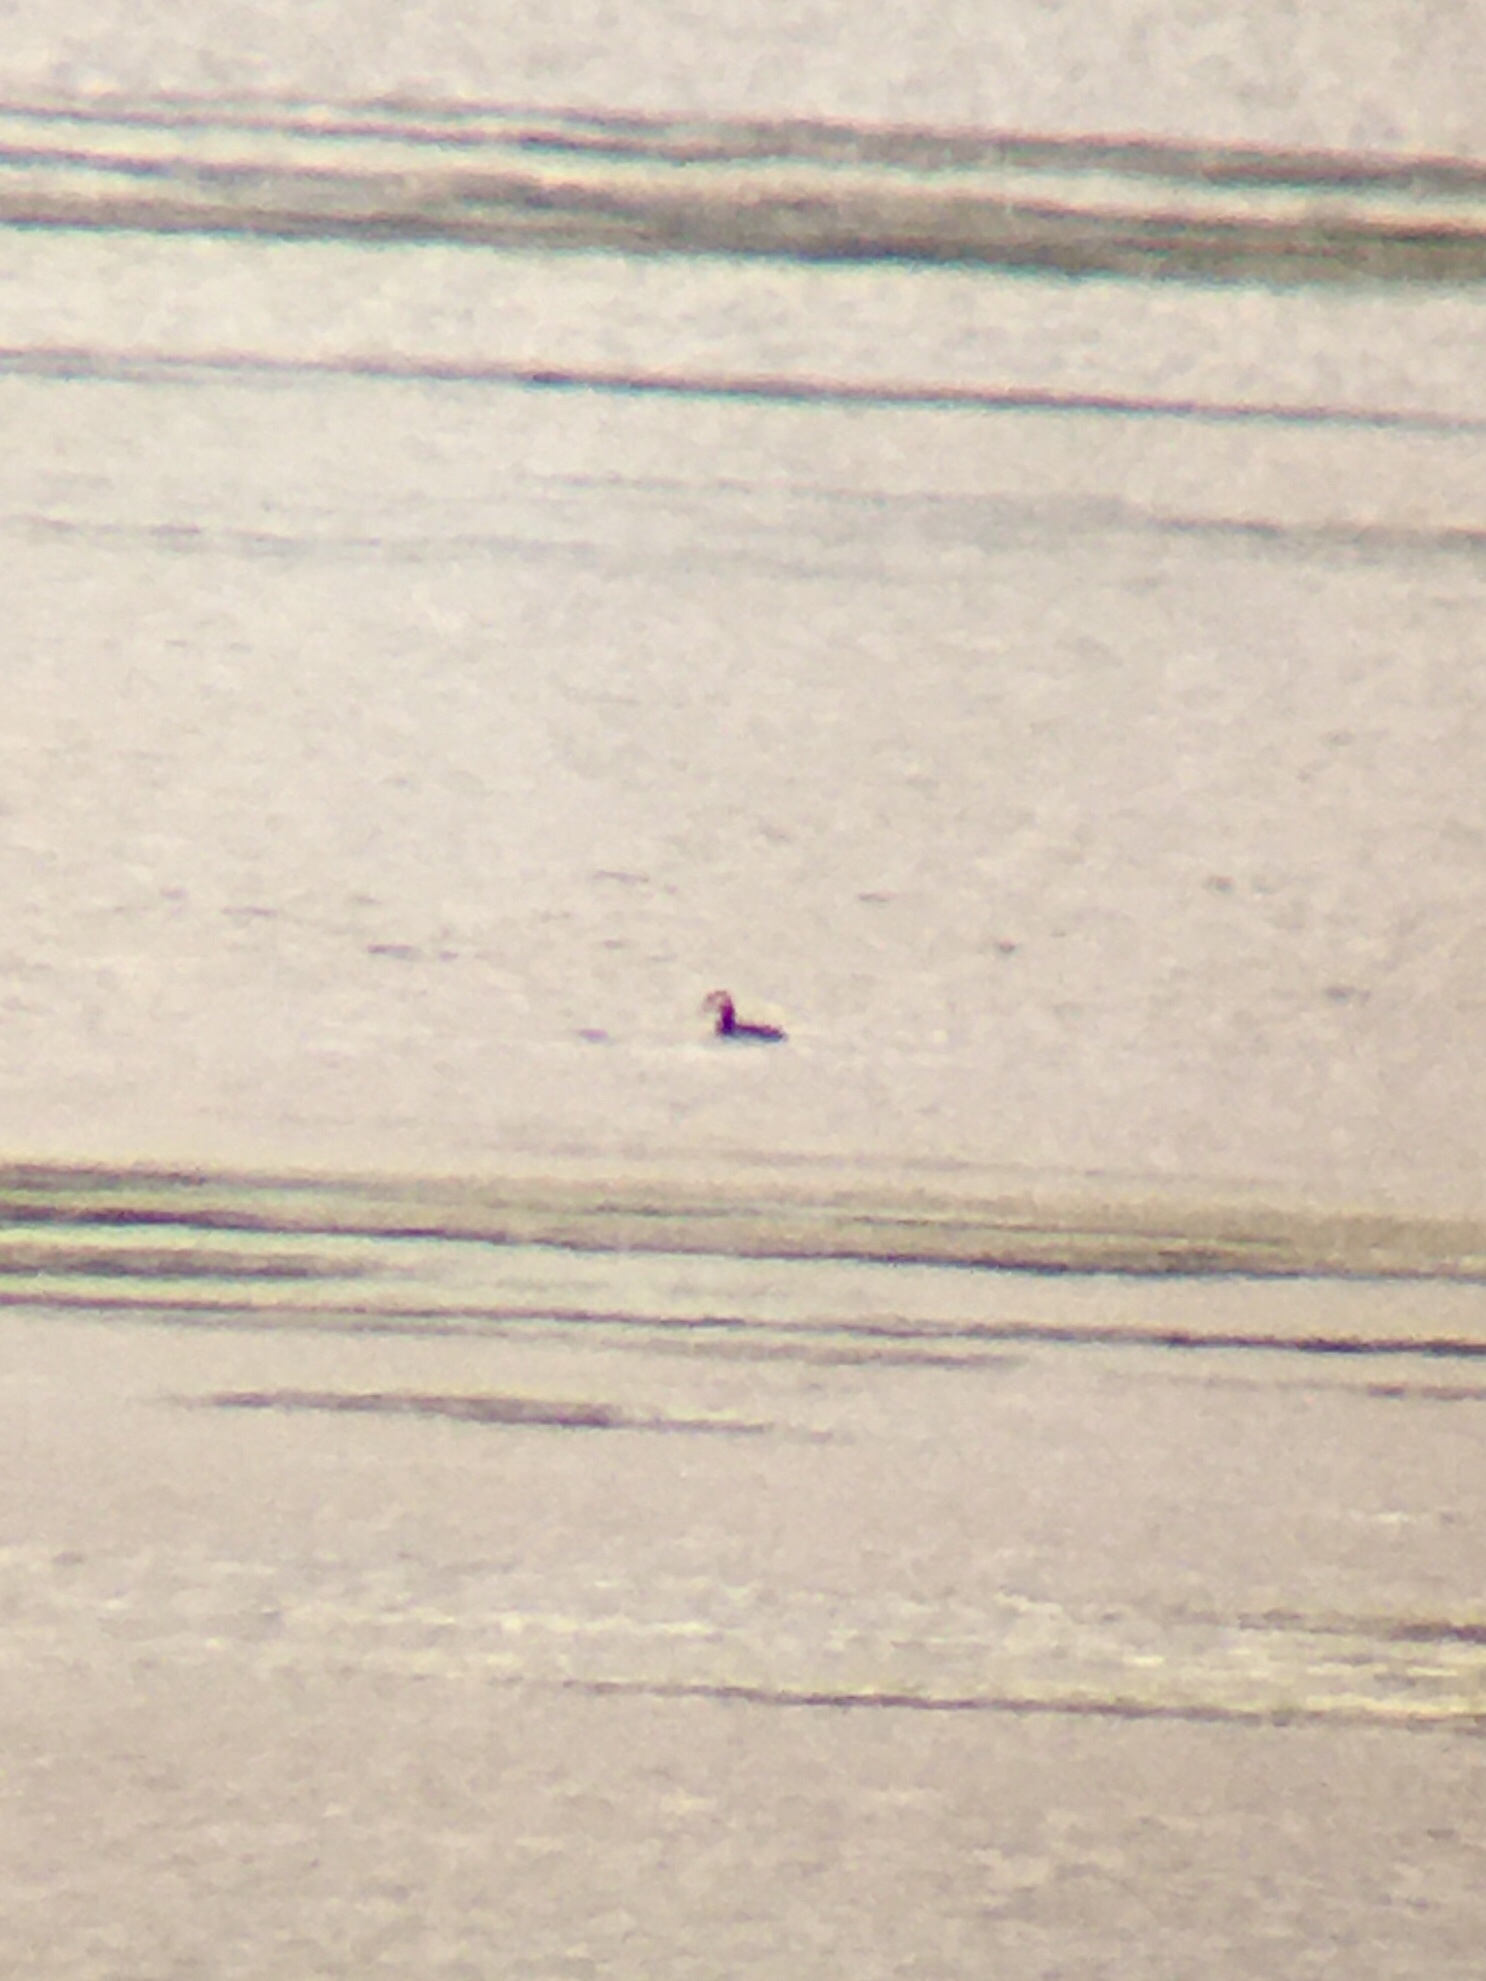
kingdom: Animalia
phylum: Chordata
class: Aves
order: Podicipediformes
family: Podicipedidae
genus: Podiceps
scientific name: Podiceps grisegena
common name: Red-necked grebe
